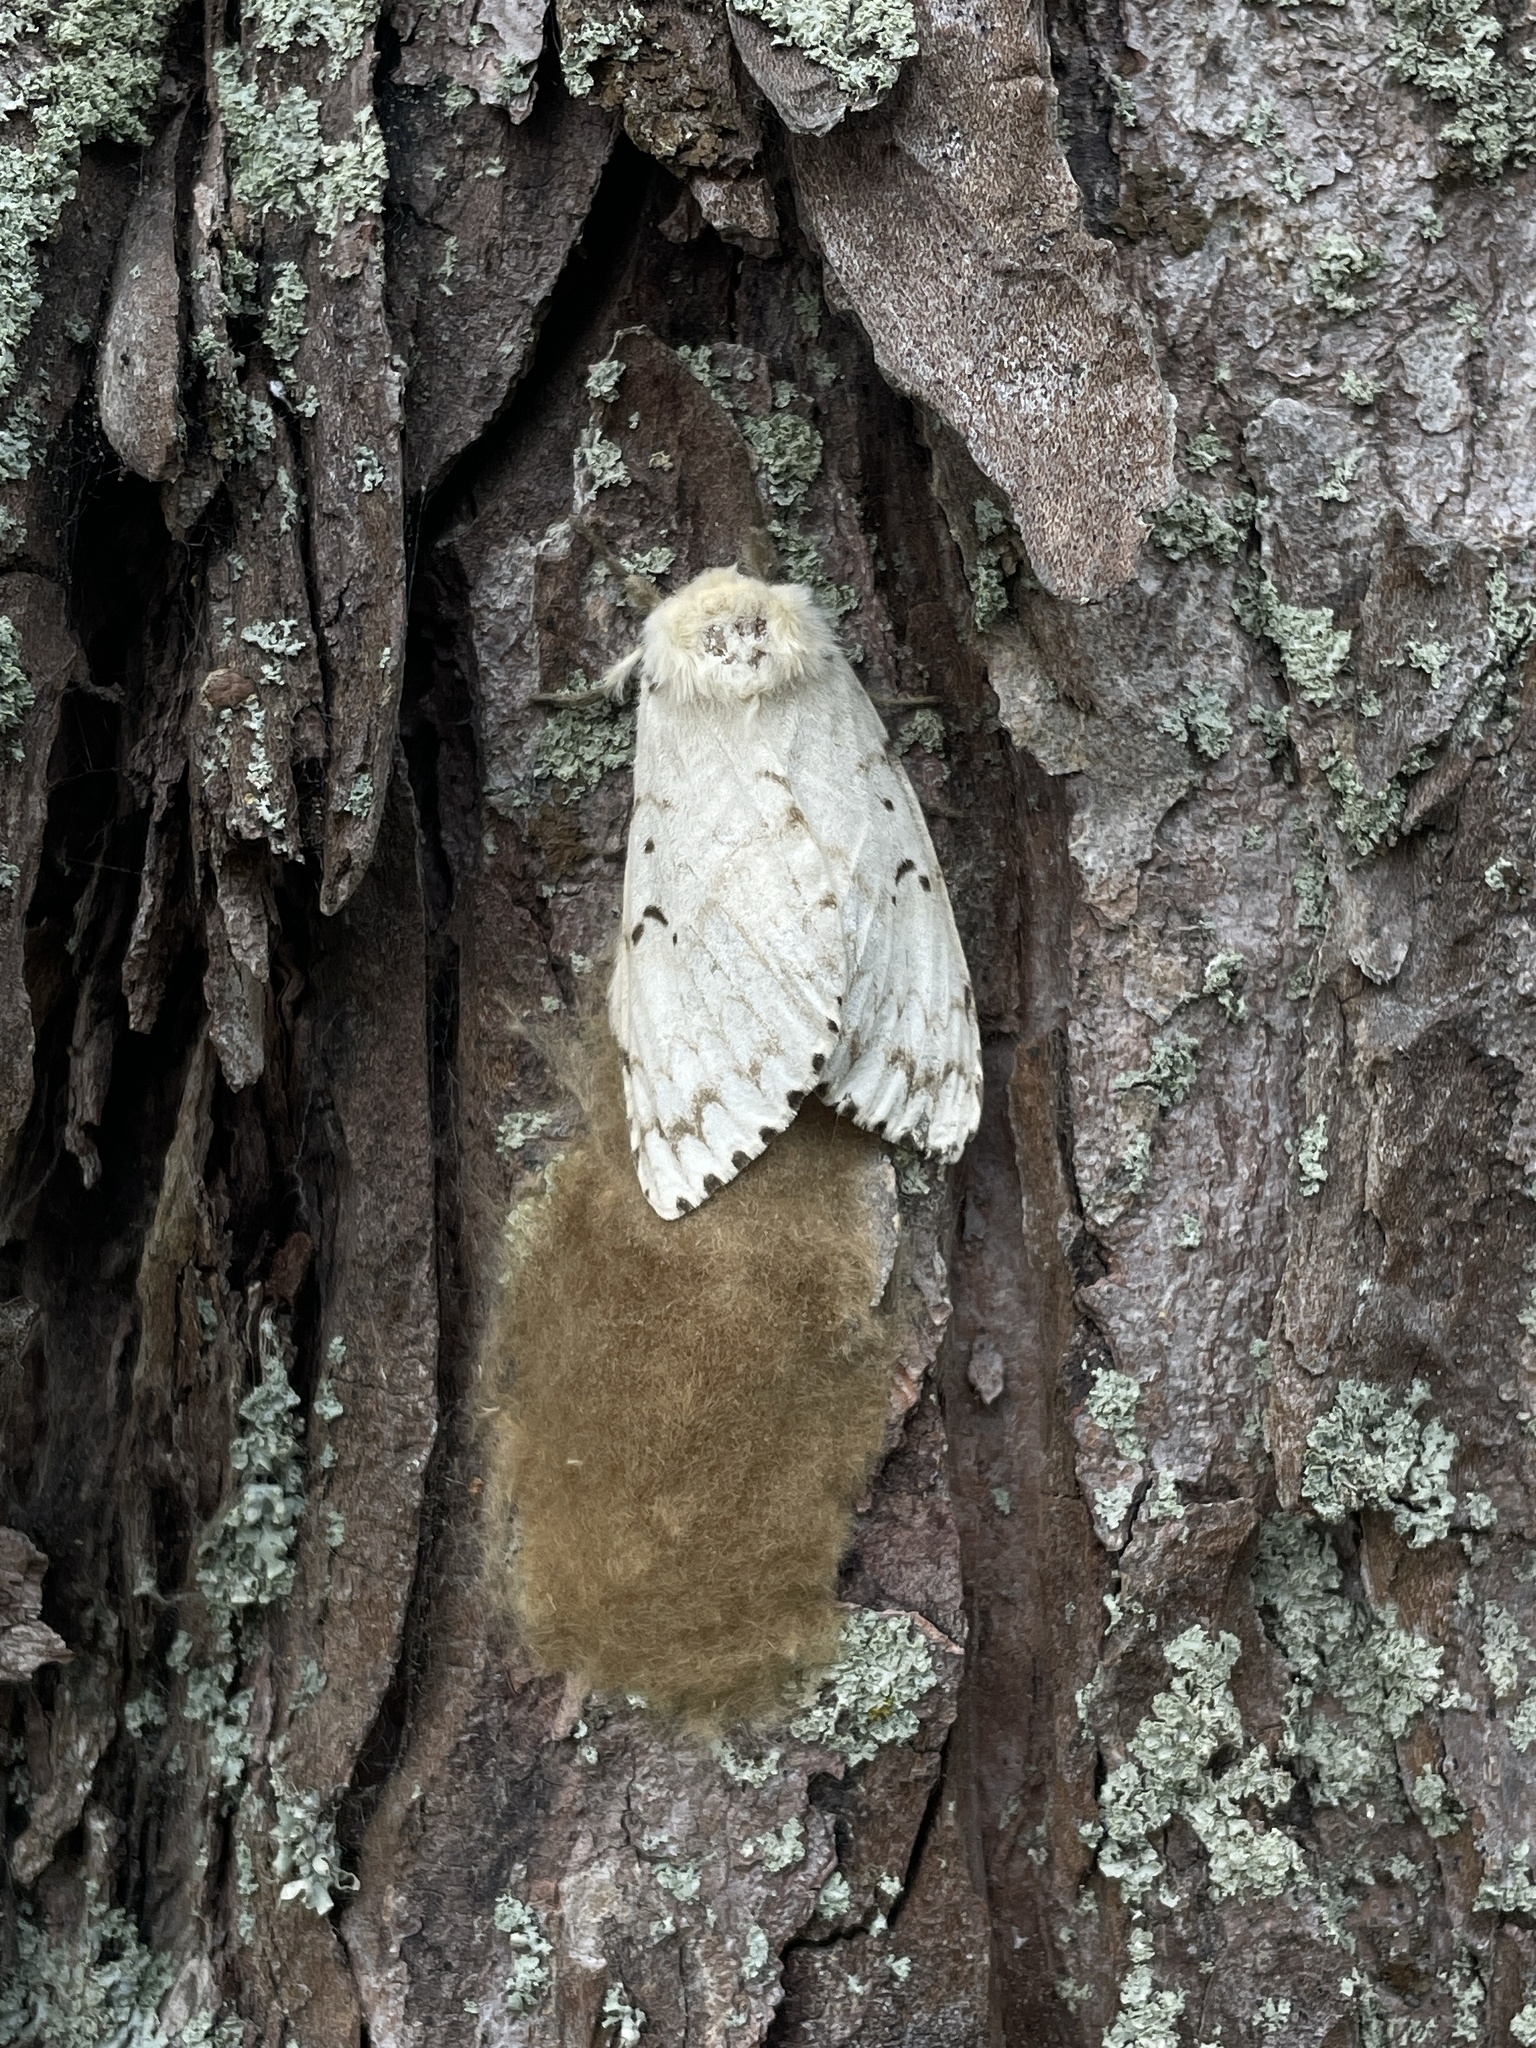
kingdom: Animalia
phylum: Arthropoda
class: Insecta
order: Lepidoptera
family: Erebidae
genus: Lymantria
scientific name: Lymantria dispar
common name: Gypsy moth
